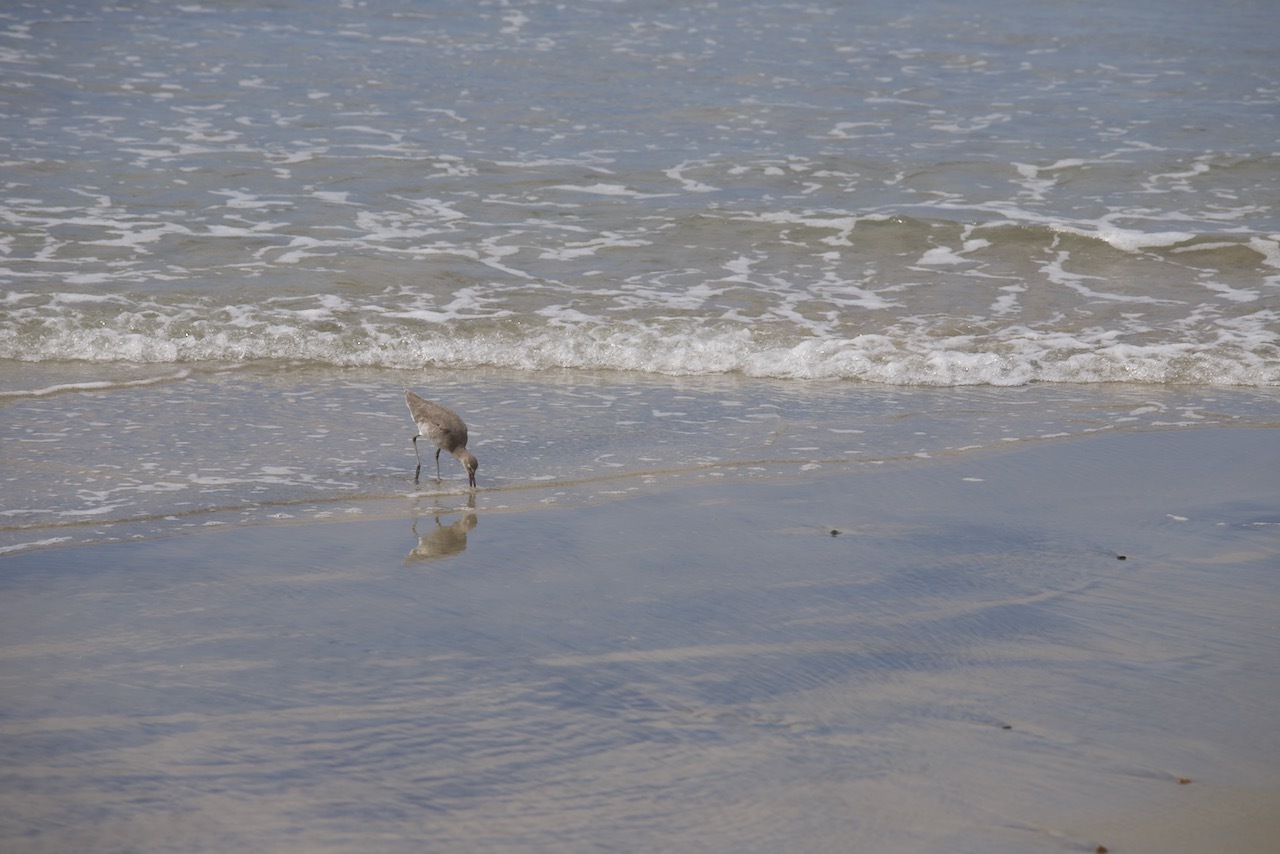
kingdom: Animalia
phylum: Chordata
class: Aves
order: Charadriiformes
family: Scolopacidae
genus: Tringa
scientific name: Tringa semipalmata
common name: Willet
